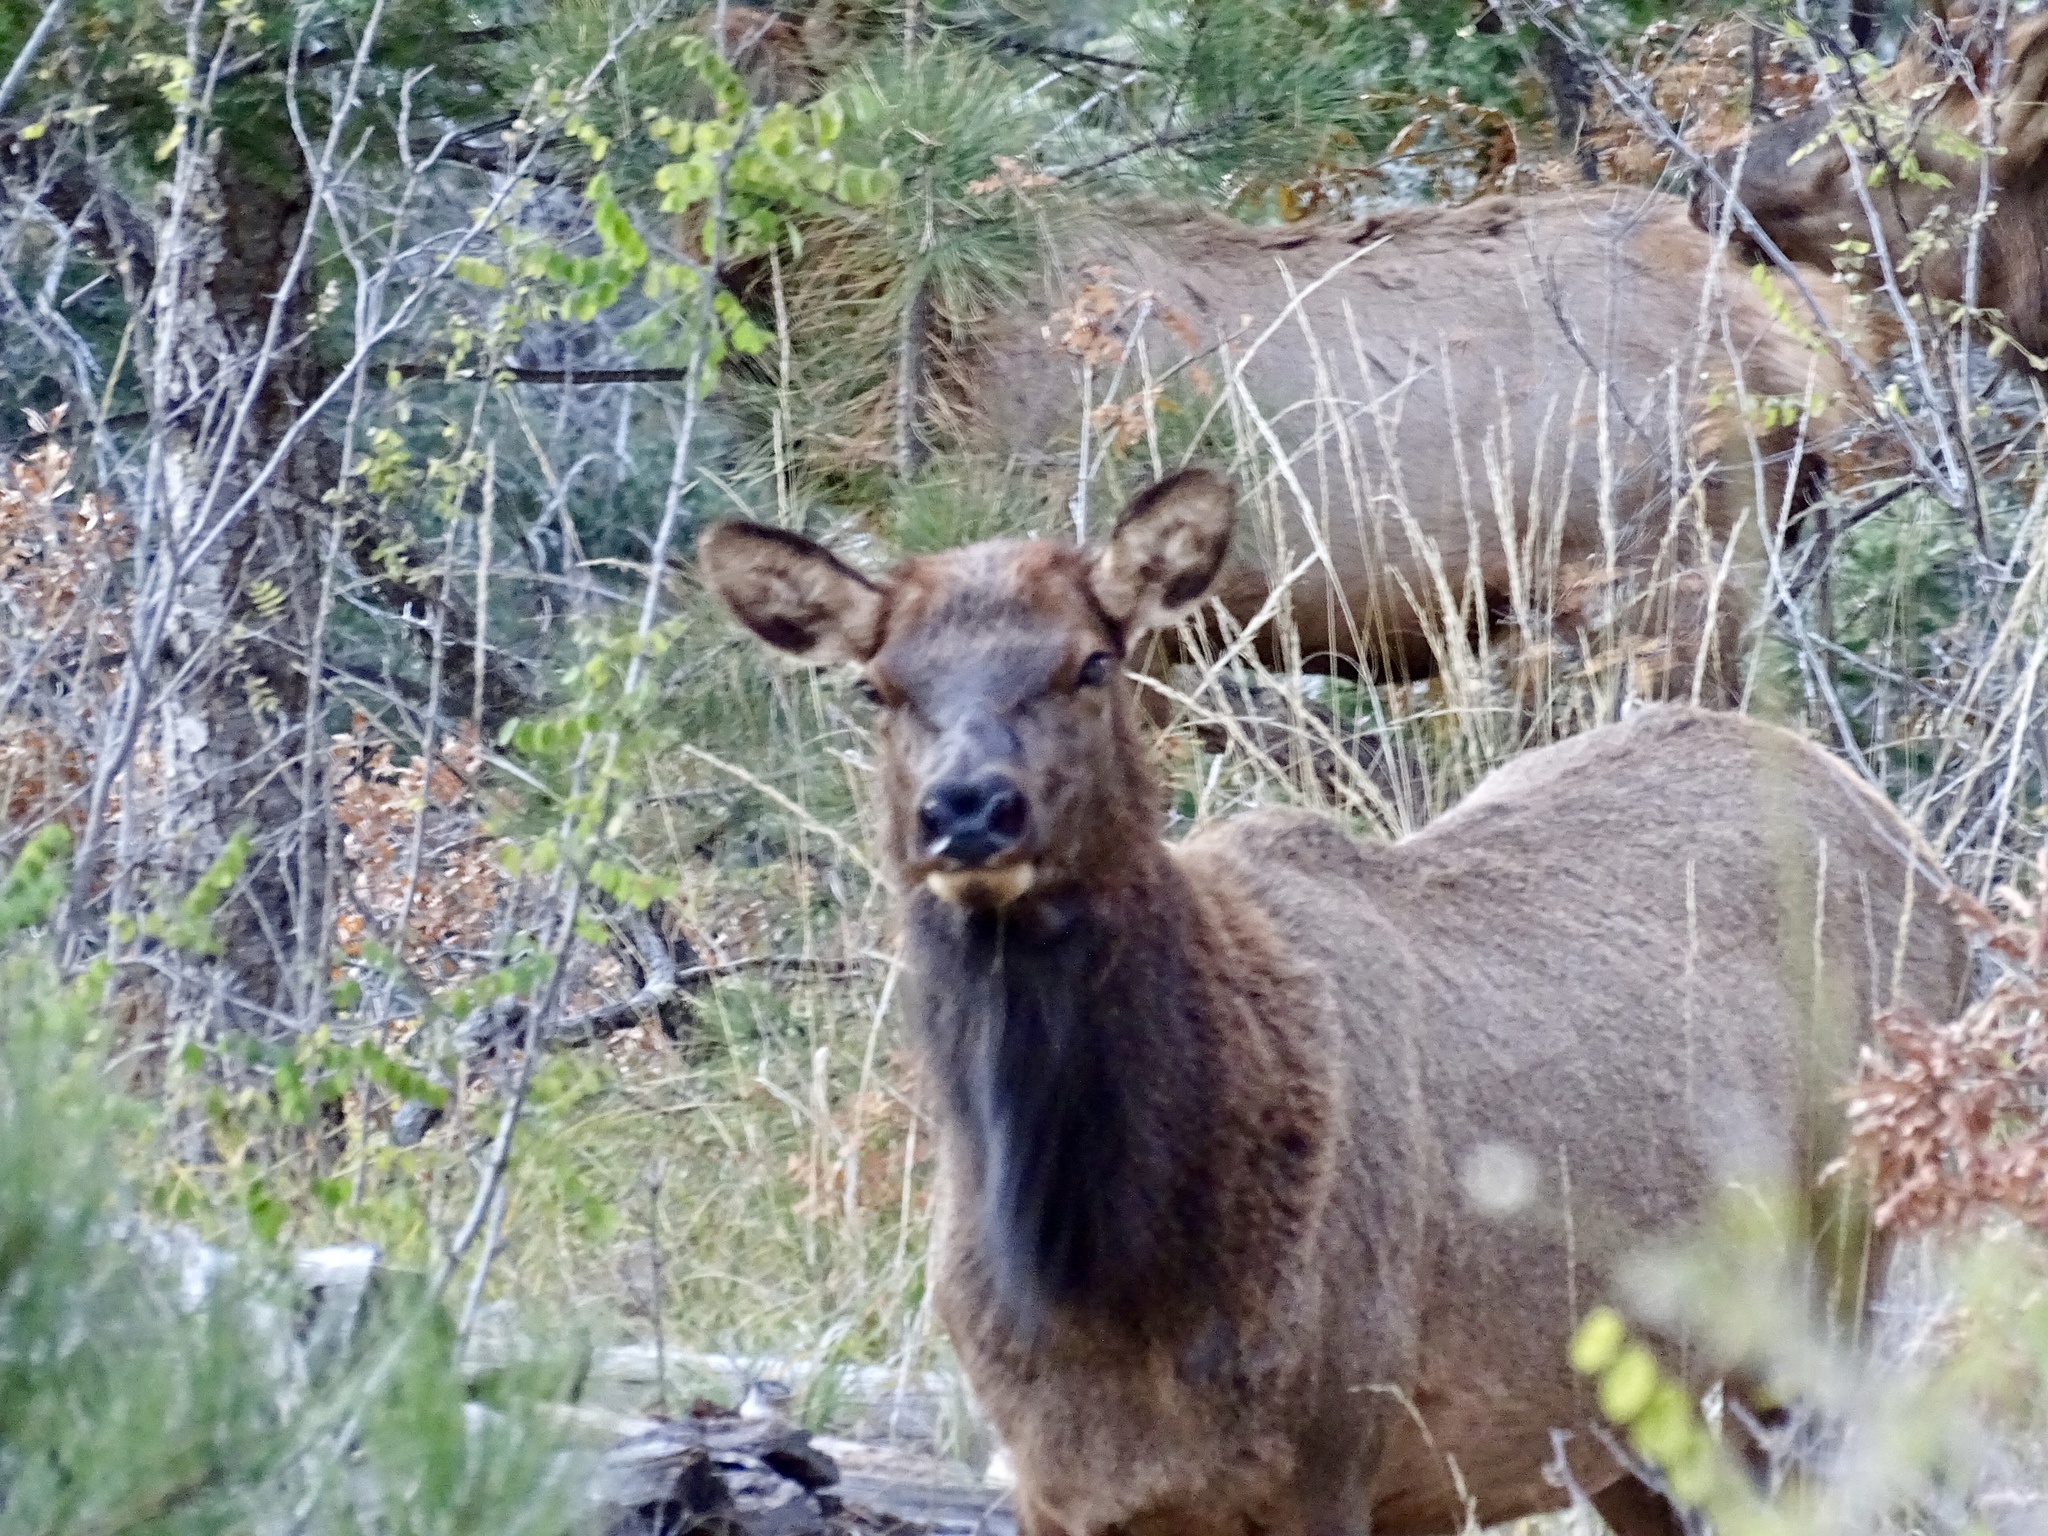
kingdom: Animalia
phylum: Chordata
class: Mammalia
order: Artiodactyla
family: Cervidae
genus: Cervus
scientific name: Cervus elaphus
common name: Red deer
